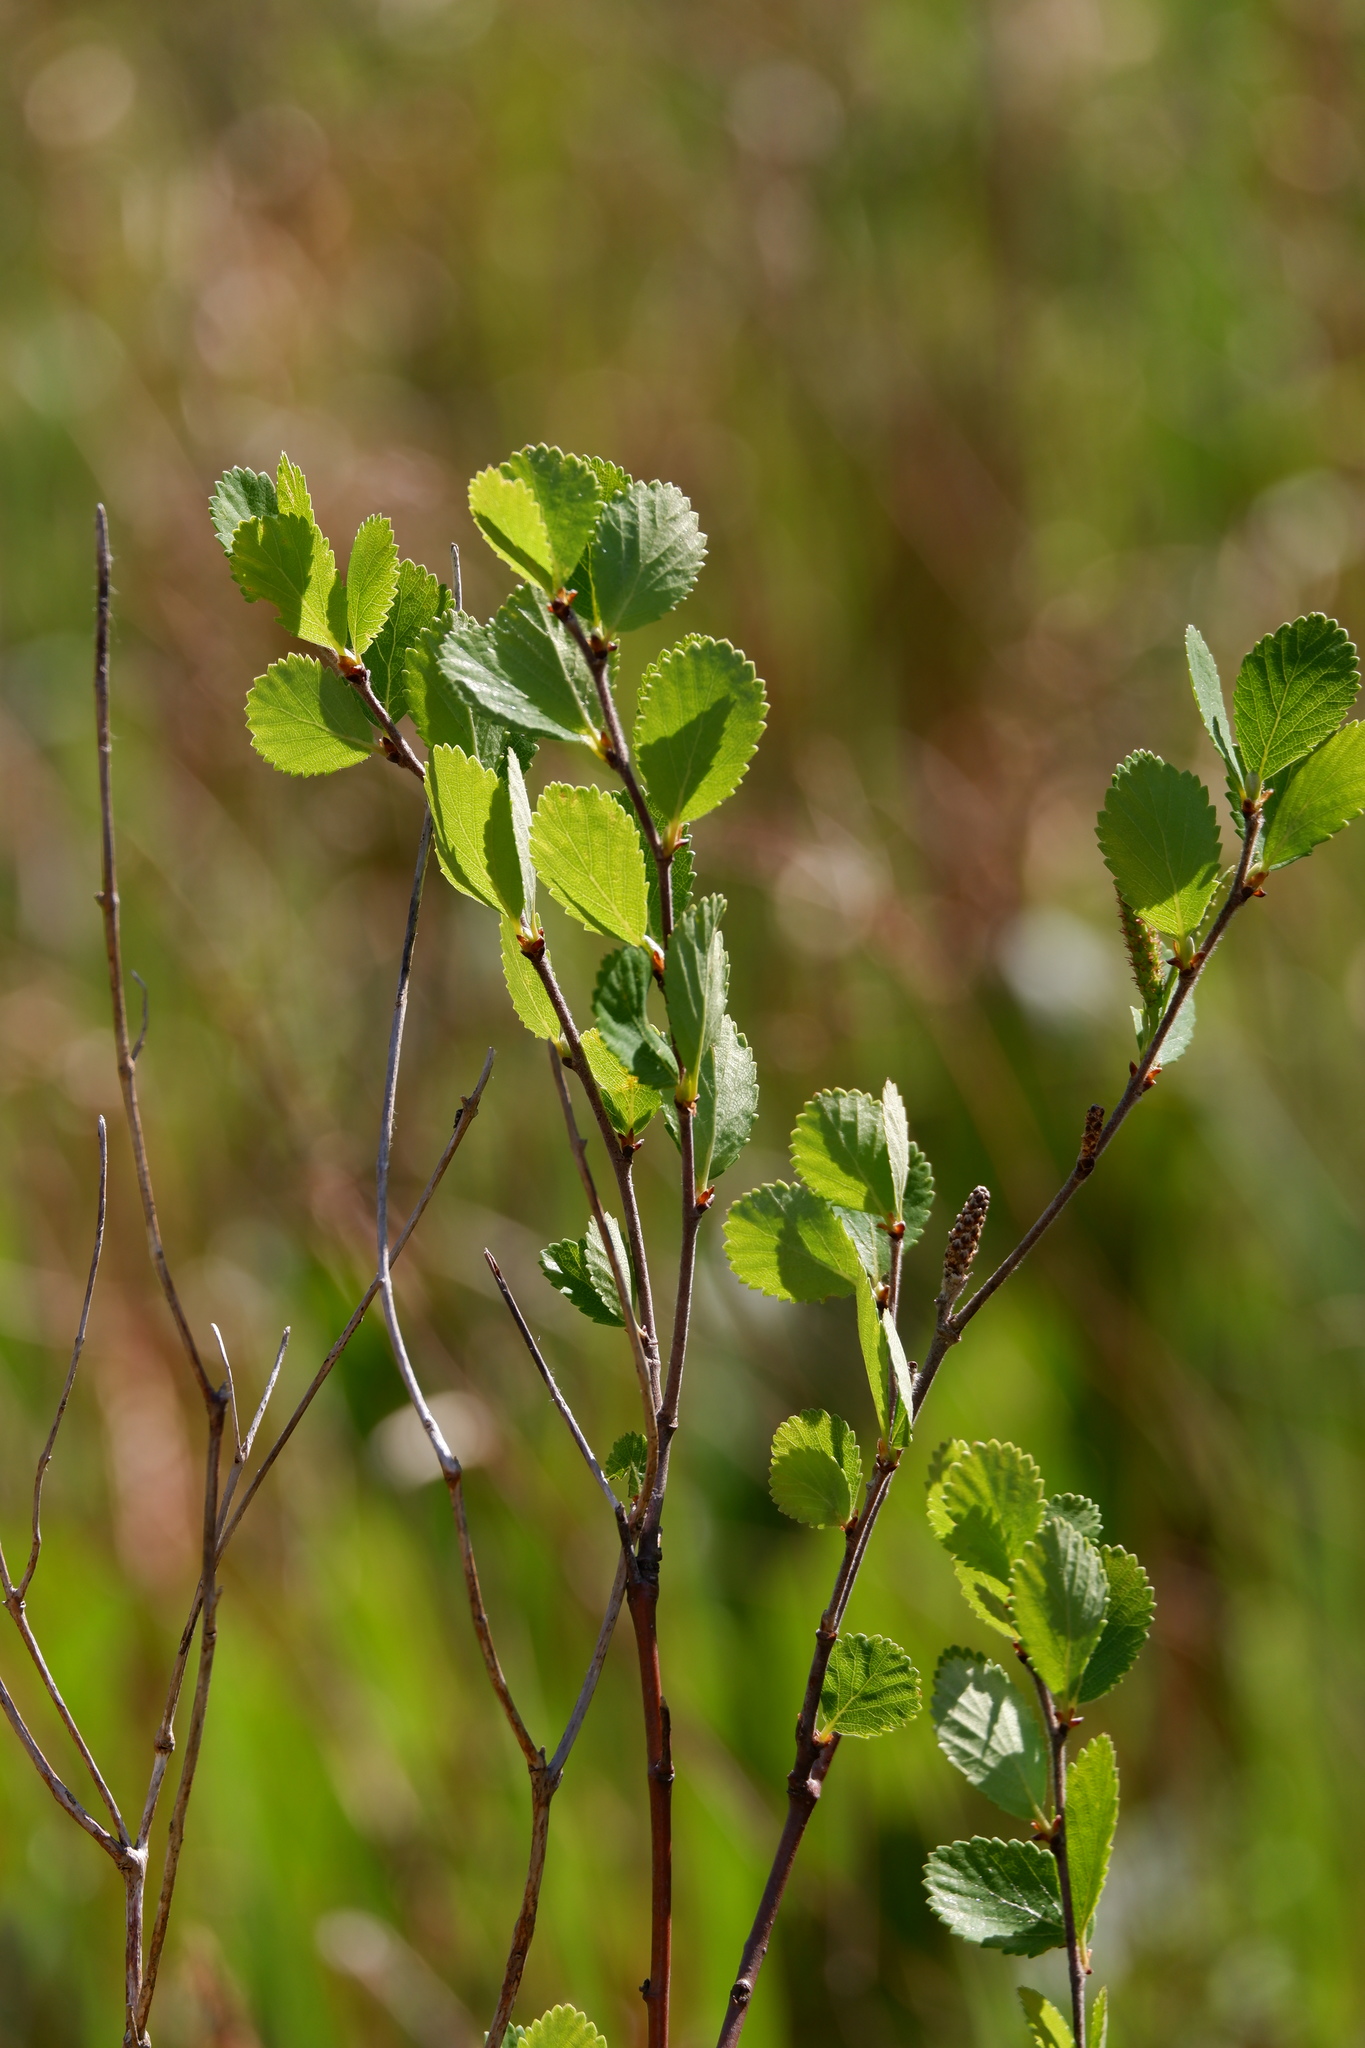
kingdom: Plantae
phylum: Tracheophyta
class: Magnoliopsida
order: Fagales
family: Betulaceae
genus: Betula
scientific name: Betula pumila
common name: Bog birch
